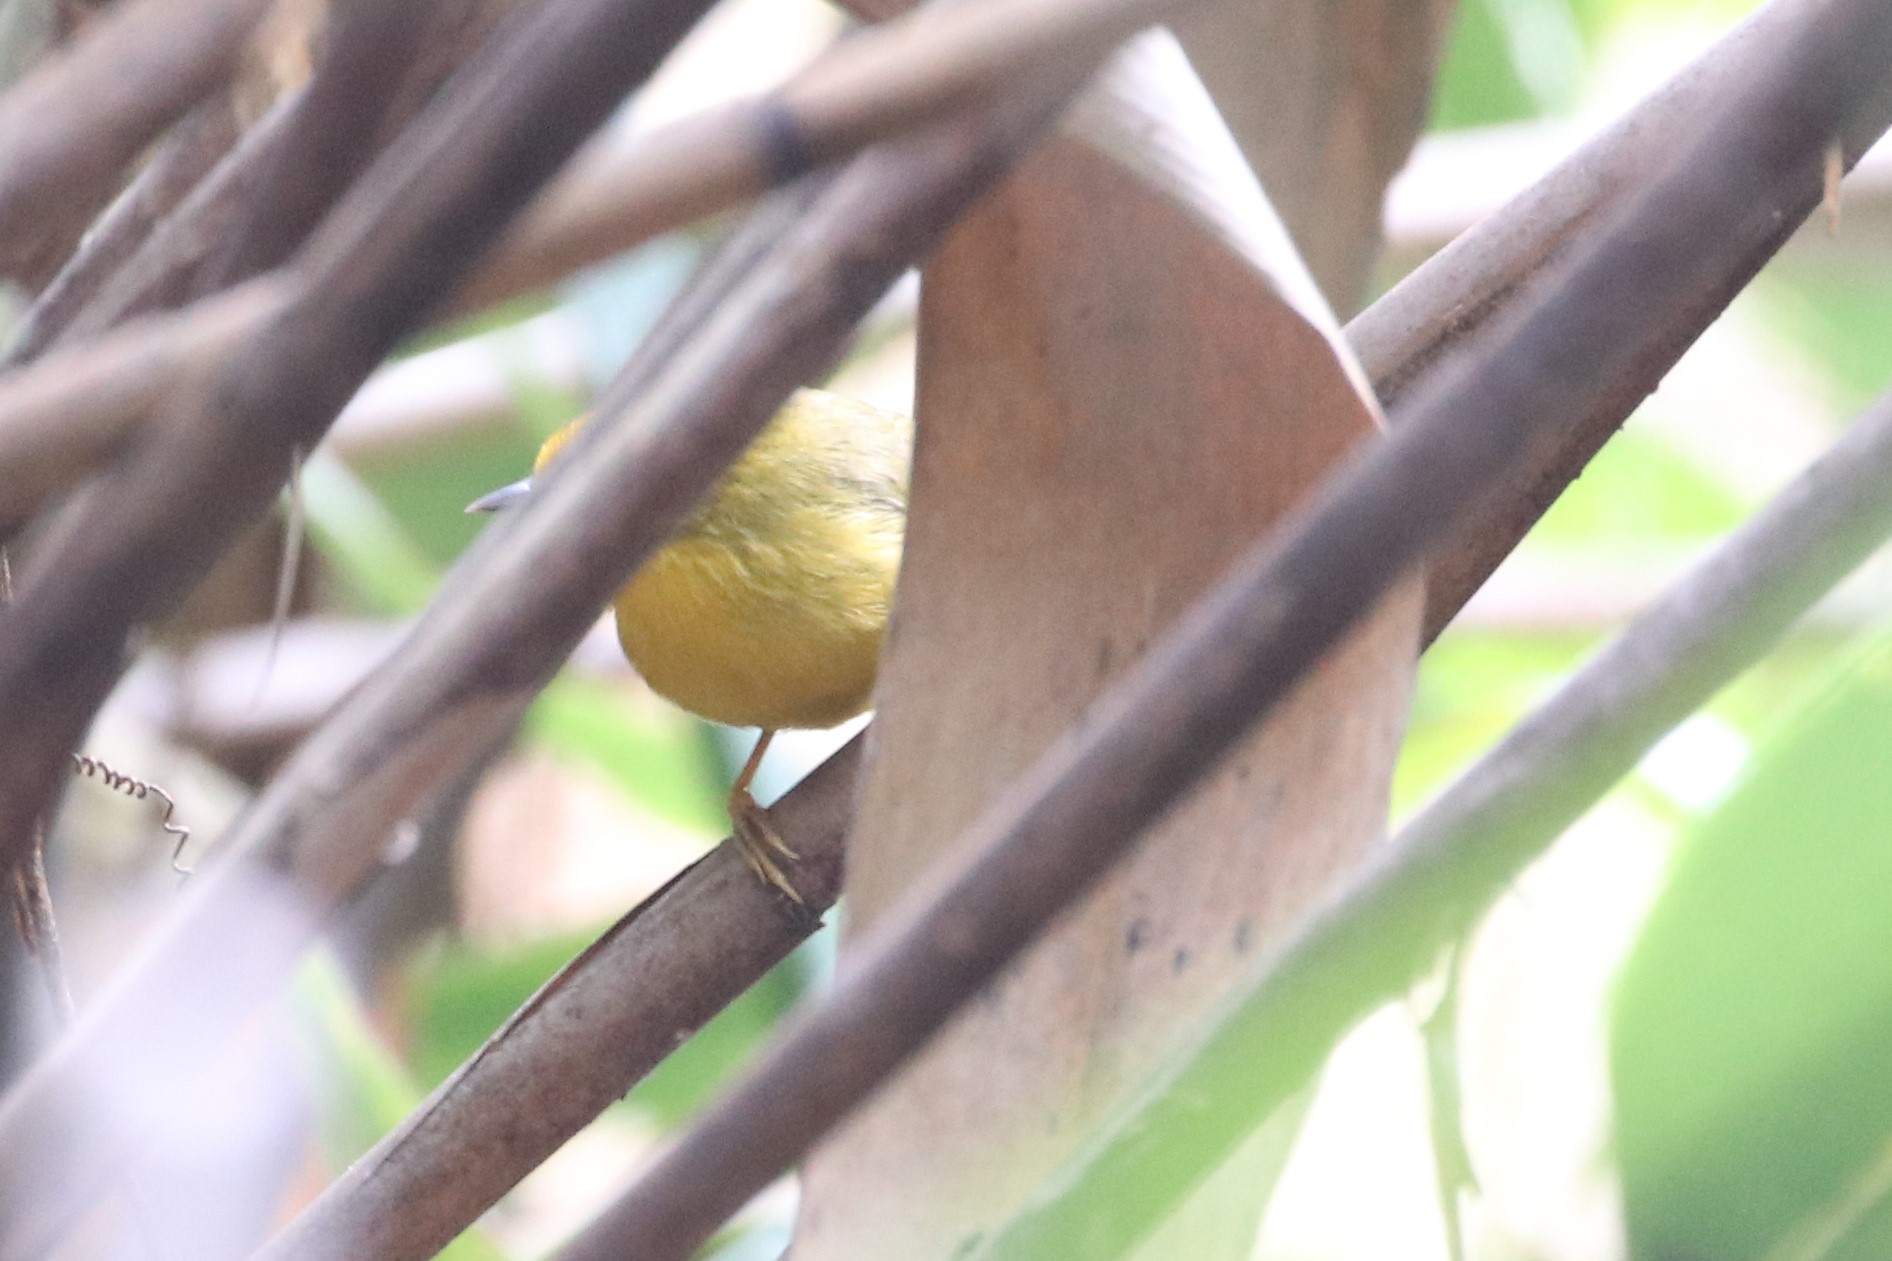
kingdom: Animalia
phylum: Chordata
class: Aves
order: Passeriformes
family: Timaliidae
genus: Stachyridopsis
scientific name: Stachyridopsis chrysaea
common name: Golden babbler
